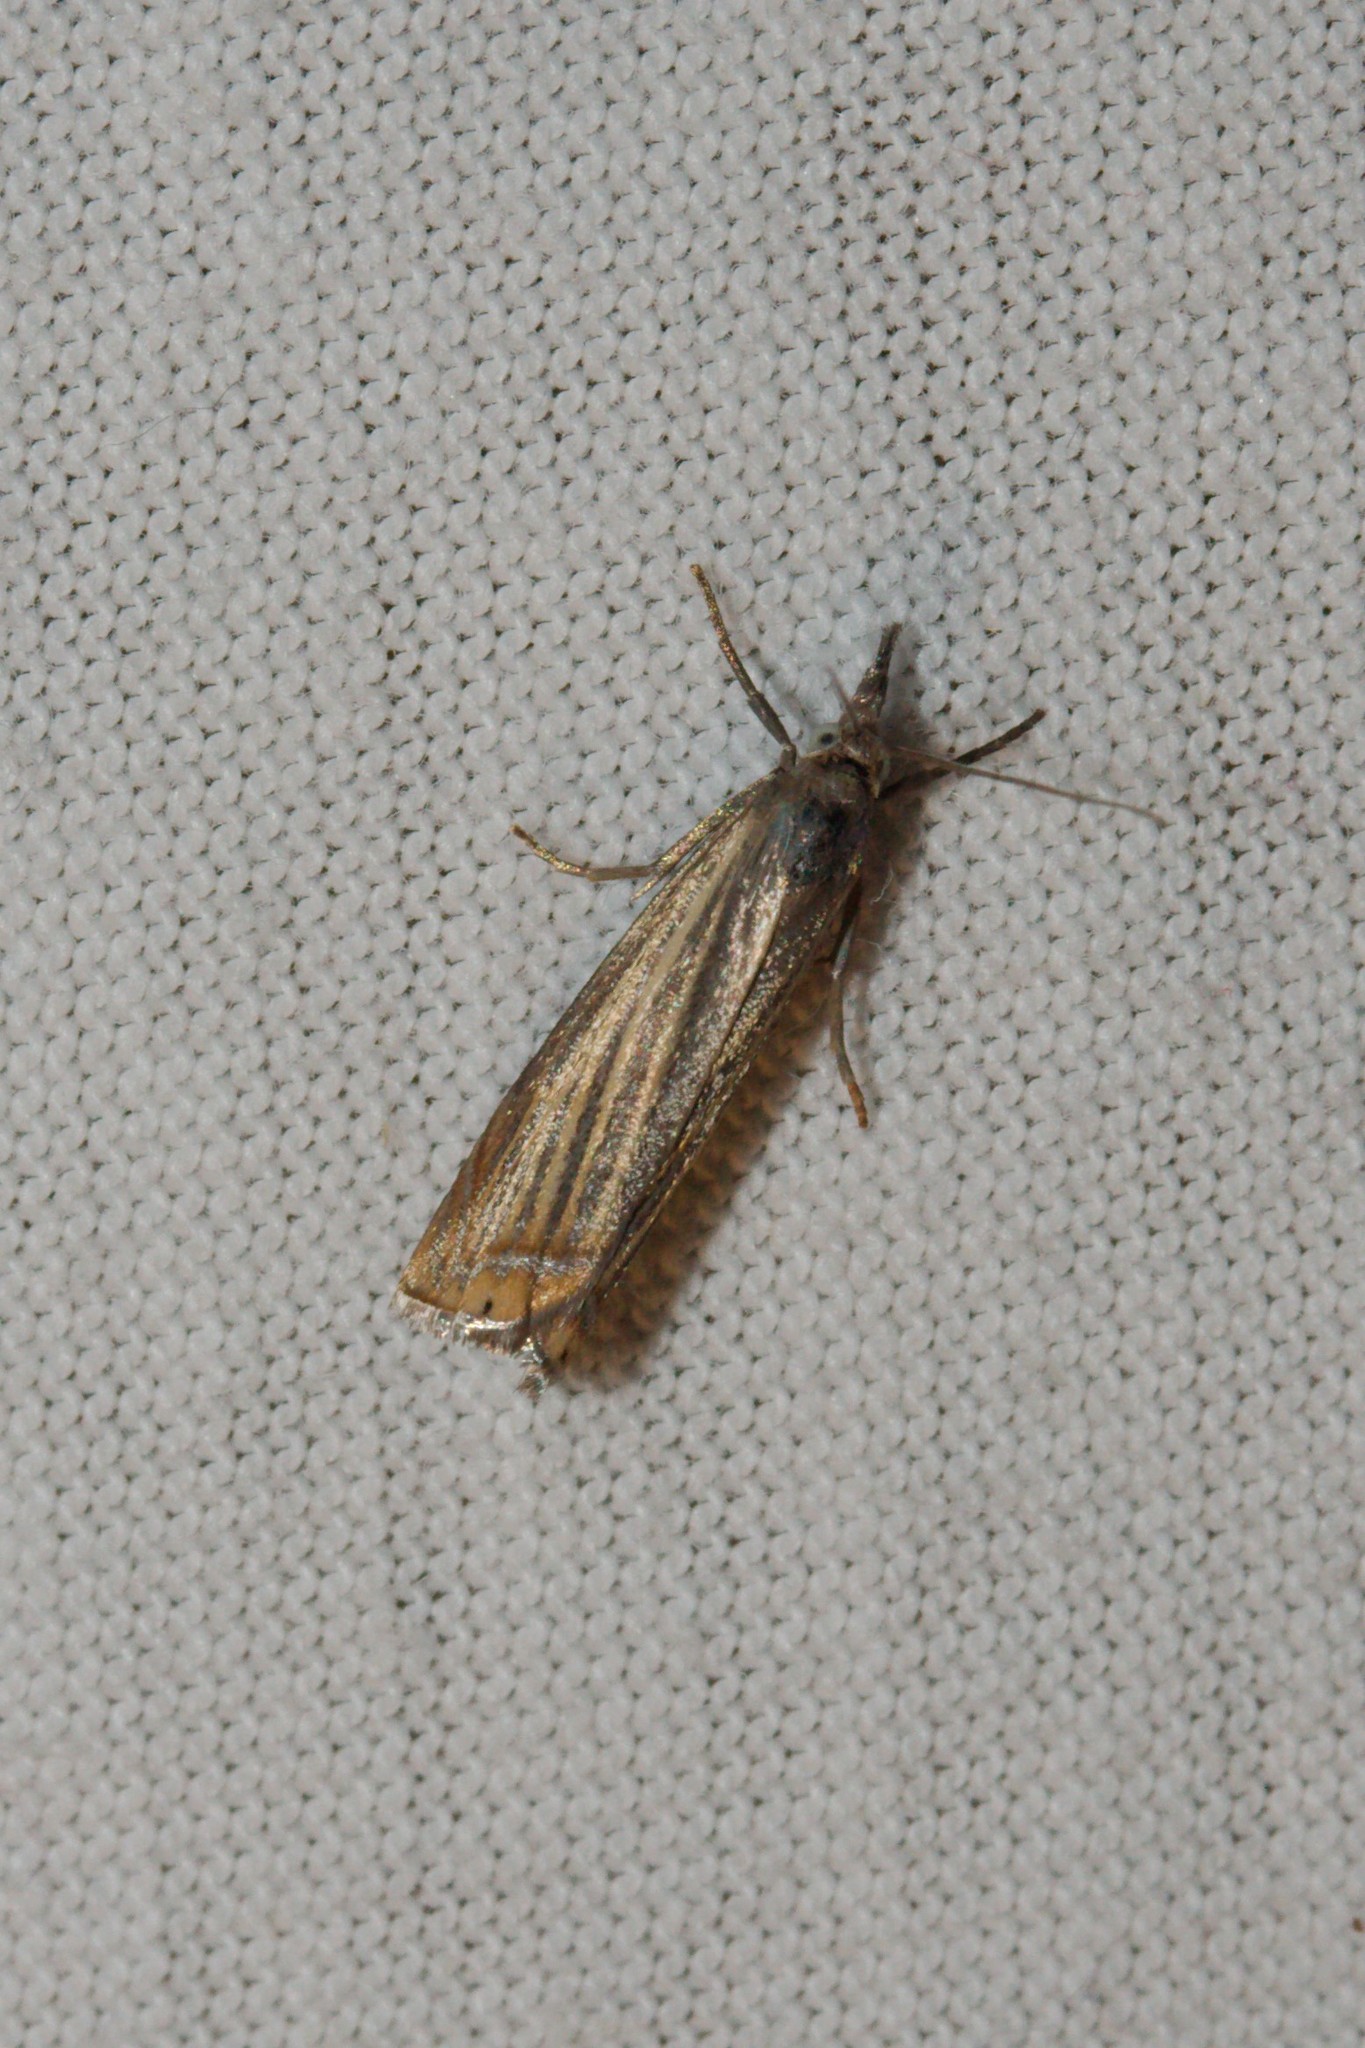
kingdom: Animalia
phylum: Arthropoda
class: Insecta
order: Lepidoptera
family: Crambidae
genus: Chrysoteuchia
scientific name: Chrysoteuchia culmella
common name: Garden grass-veneer
